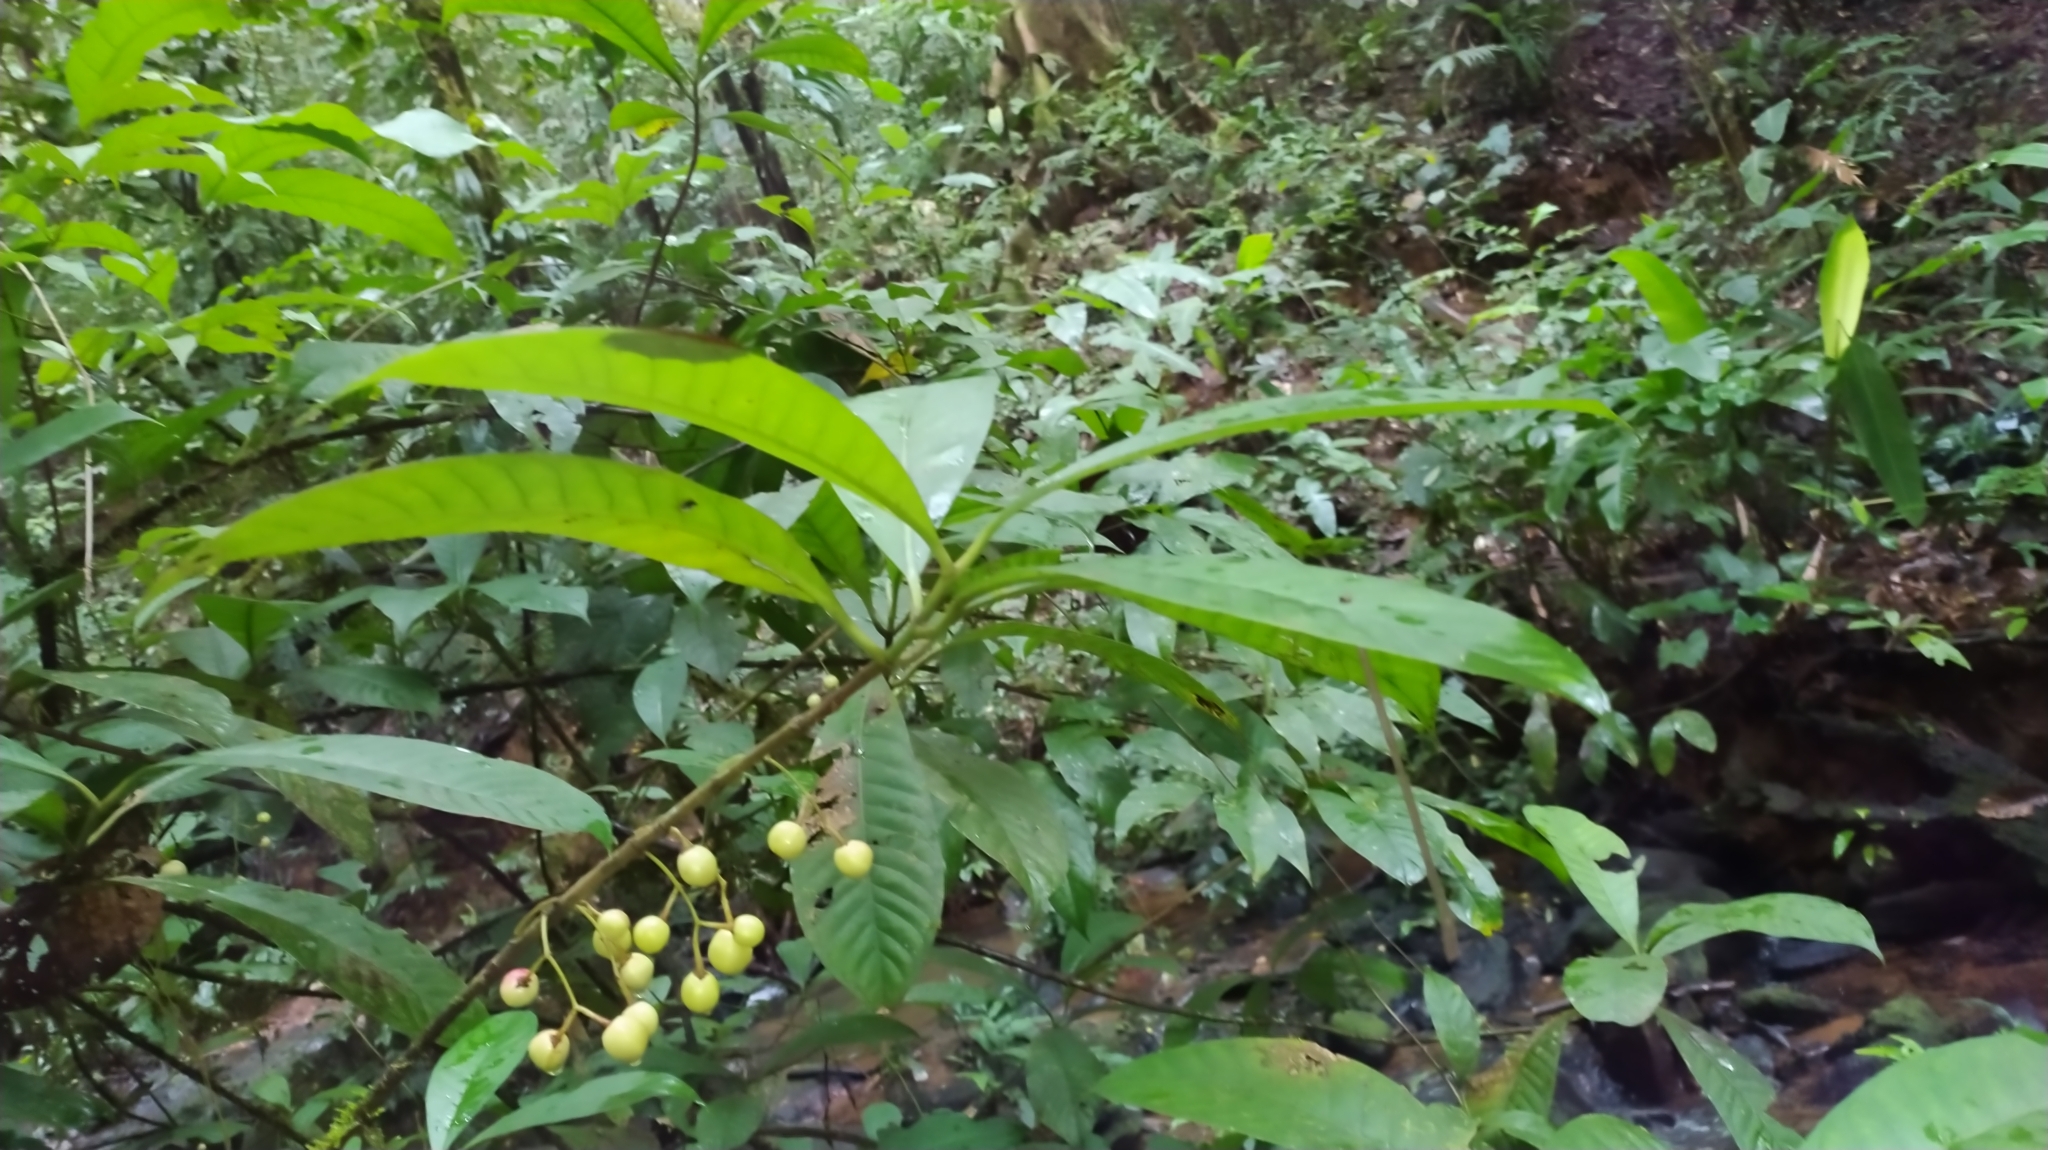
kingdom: Plantae
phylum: Tracheophyta
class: Magnoliopsida
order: Malpighiales
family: Clusiaceae
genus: Chrysochlamys
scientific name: Chrysochlamys membranacea
